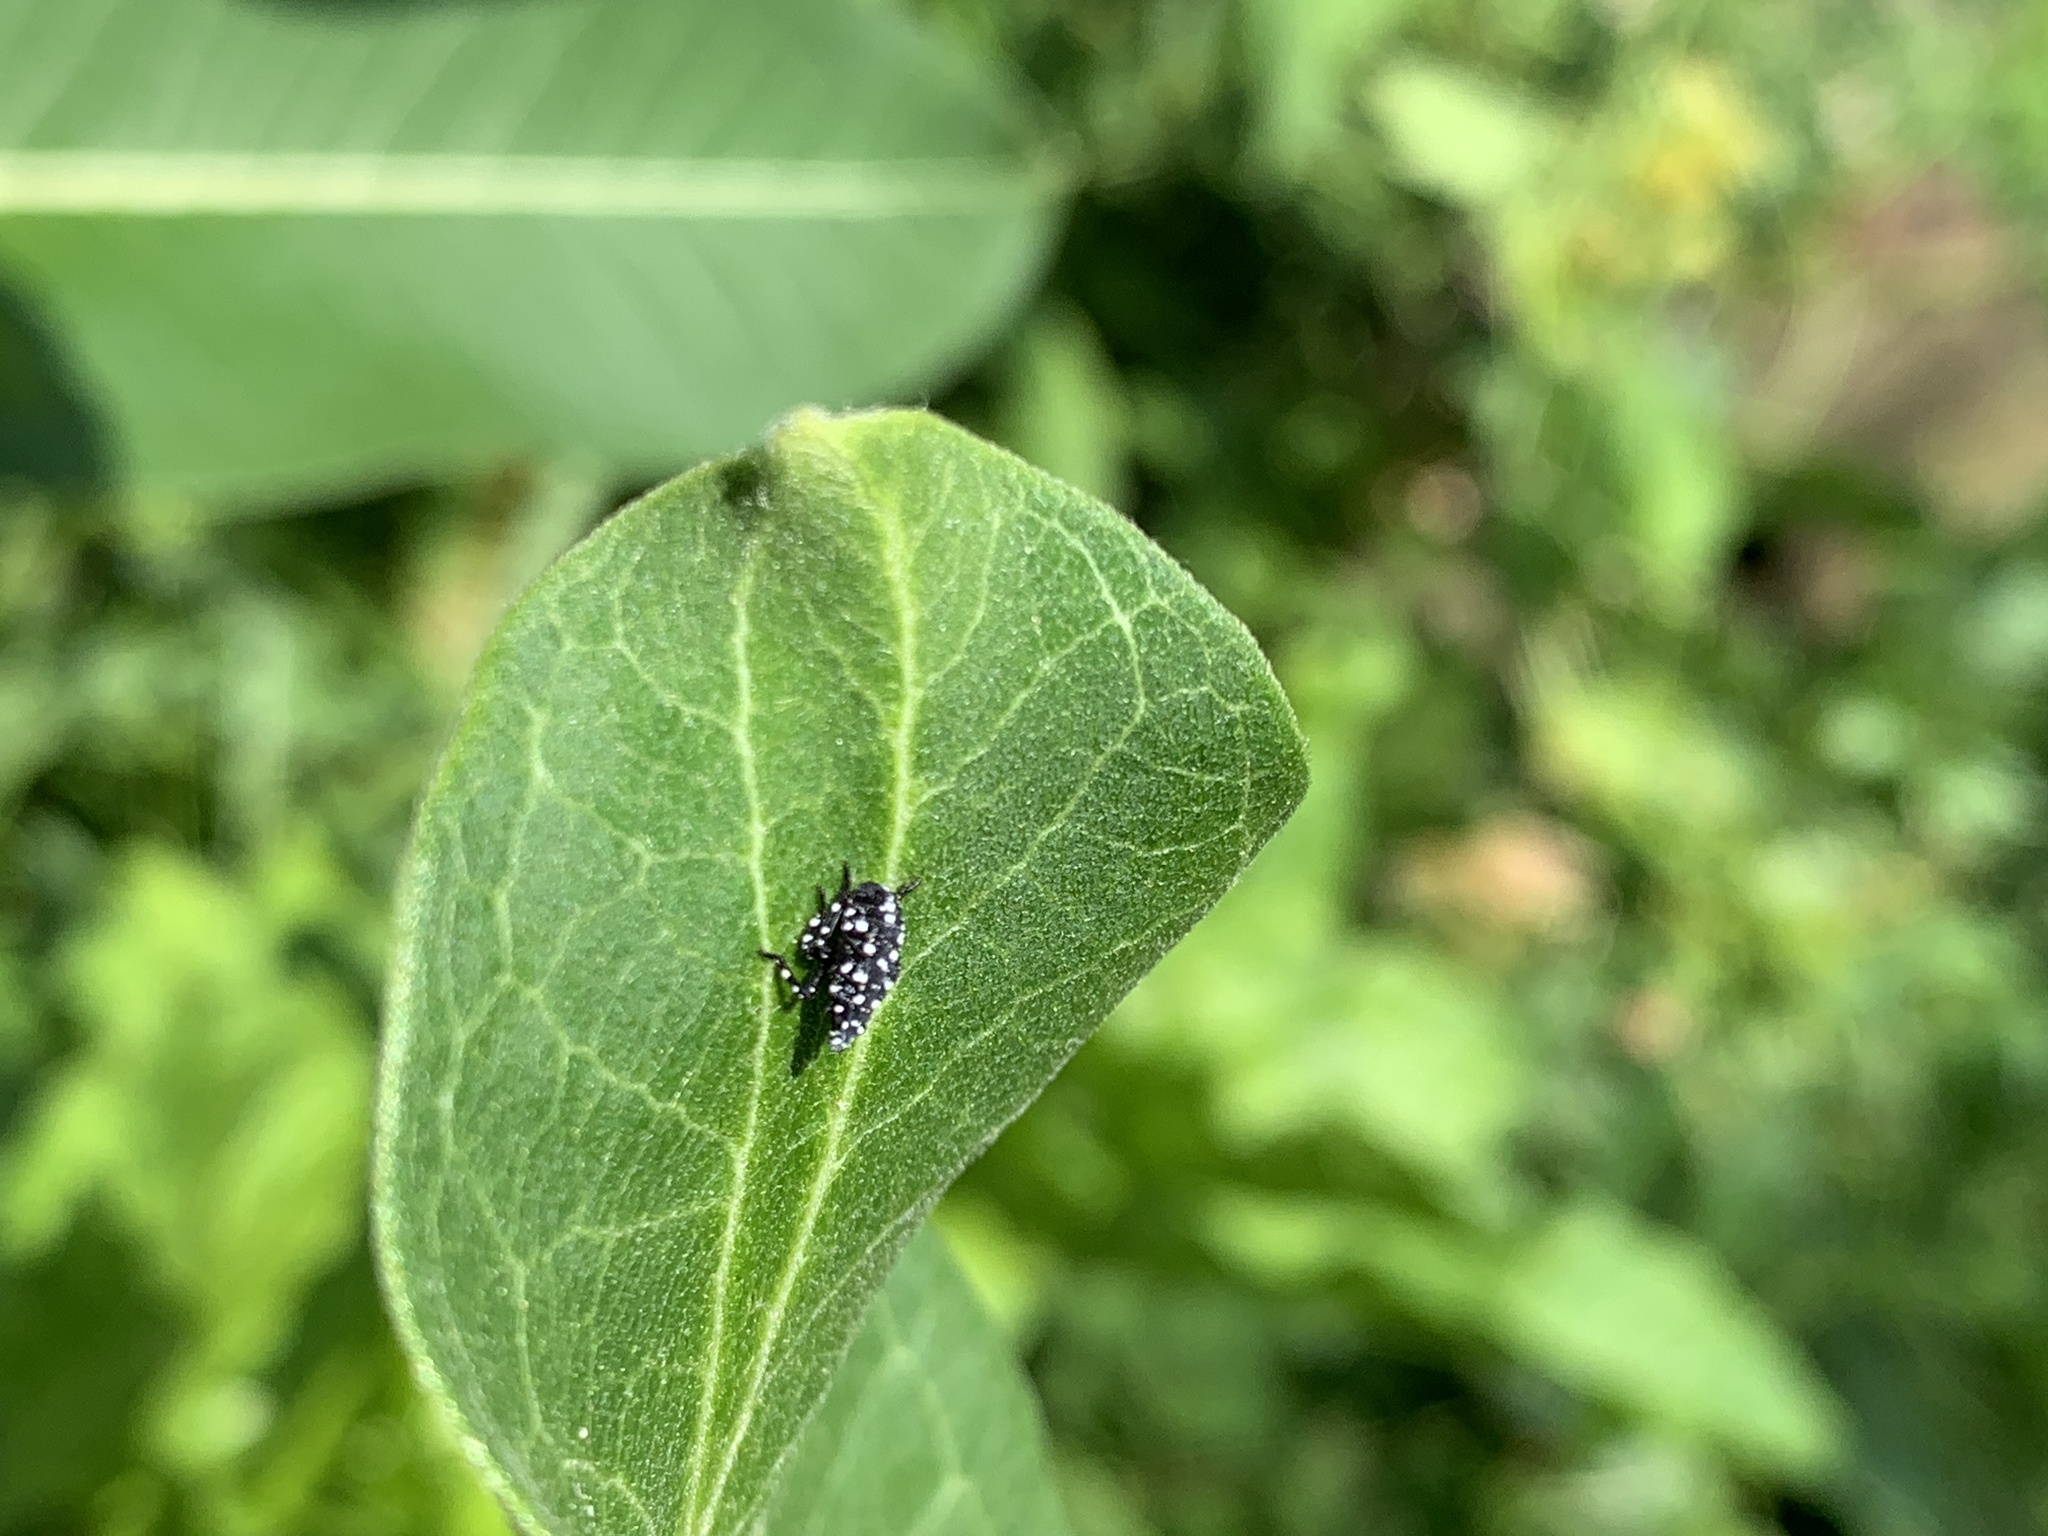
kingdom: Animalia
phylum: Arthropoda
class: Insecta
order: Hemiptera
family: Fulgoridae
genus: Lycorma
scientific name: Lycorma delicatula
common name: Spotted lanternfly
